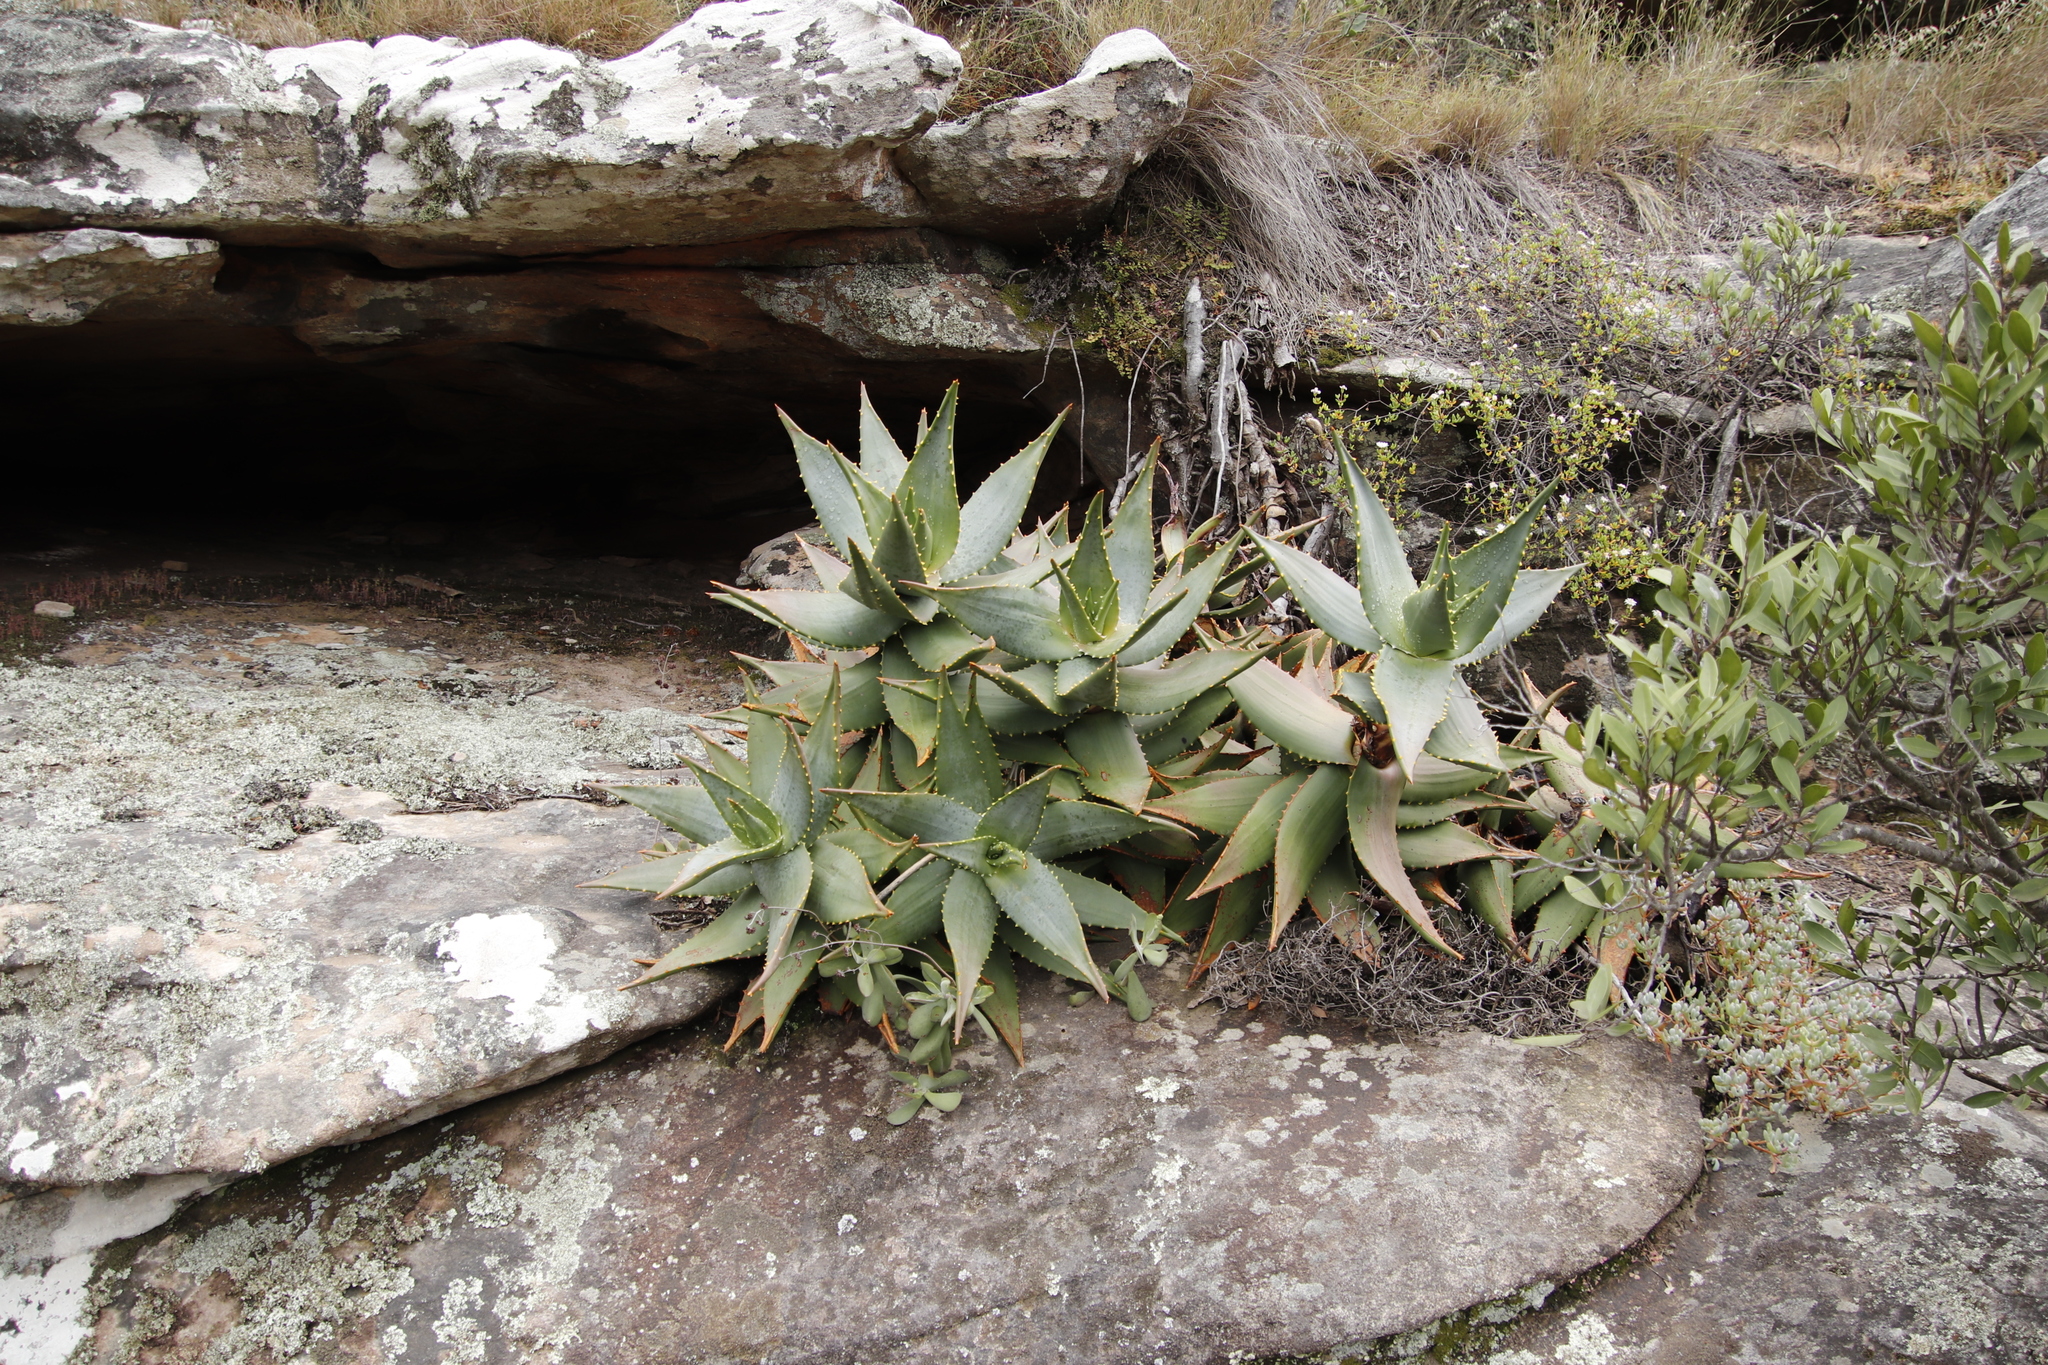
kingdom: Plantae
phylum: Tracheophyta
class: Liliopsida
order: Asparagales
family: Asphodelaceae
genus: Aloe
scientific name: Aloe perfoliata
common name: Mitra aloe
